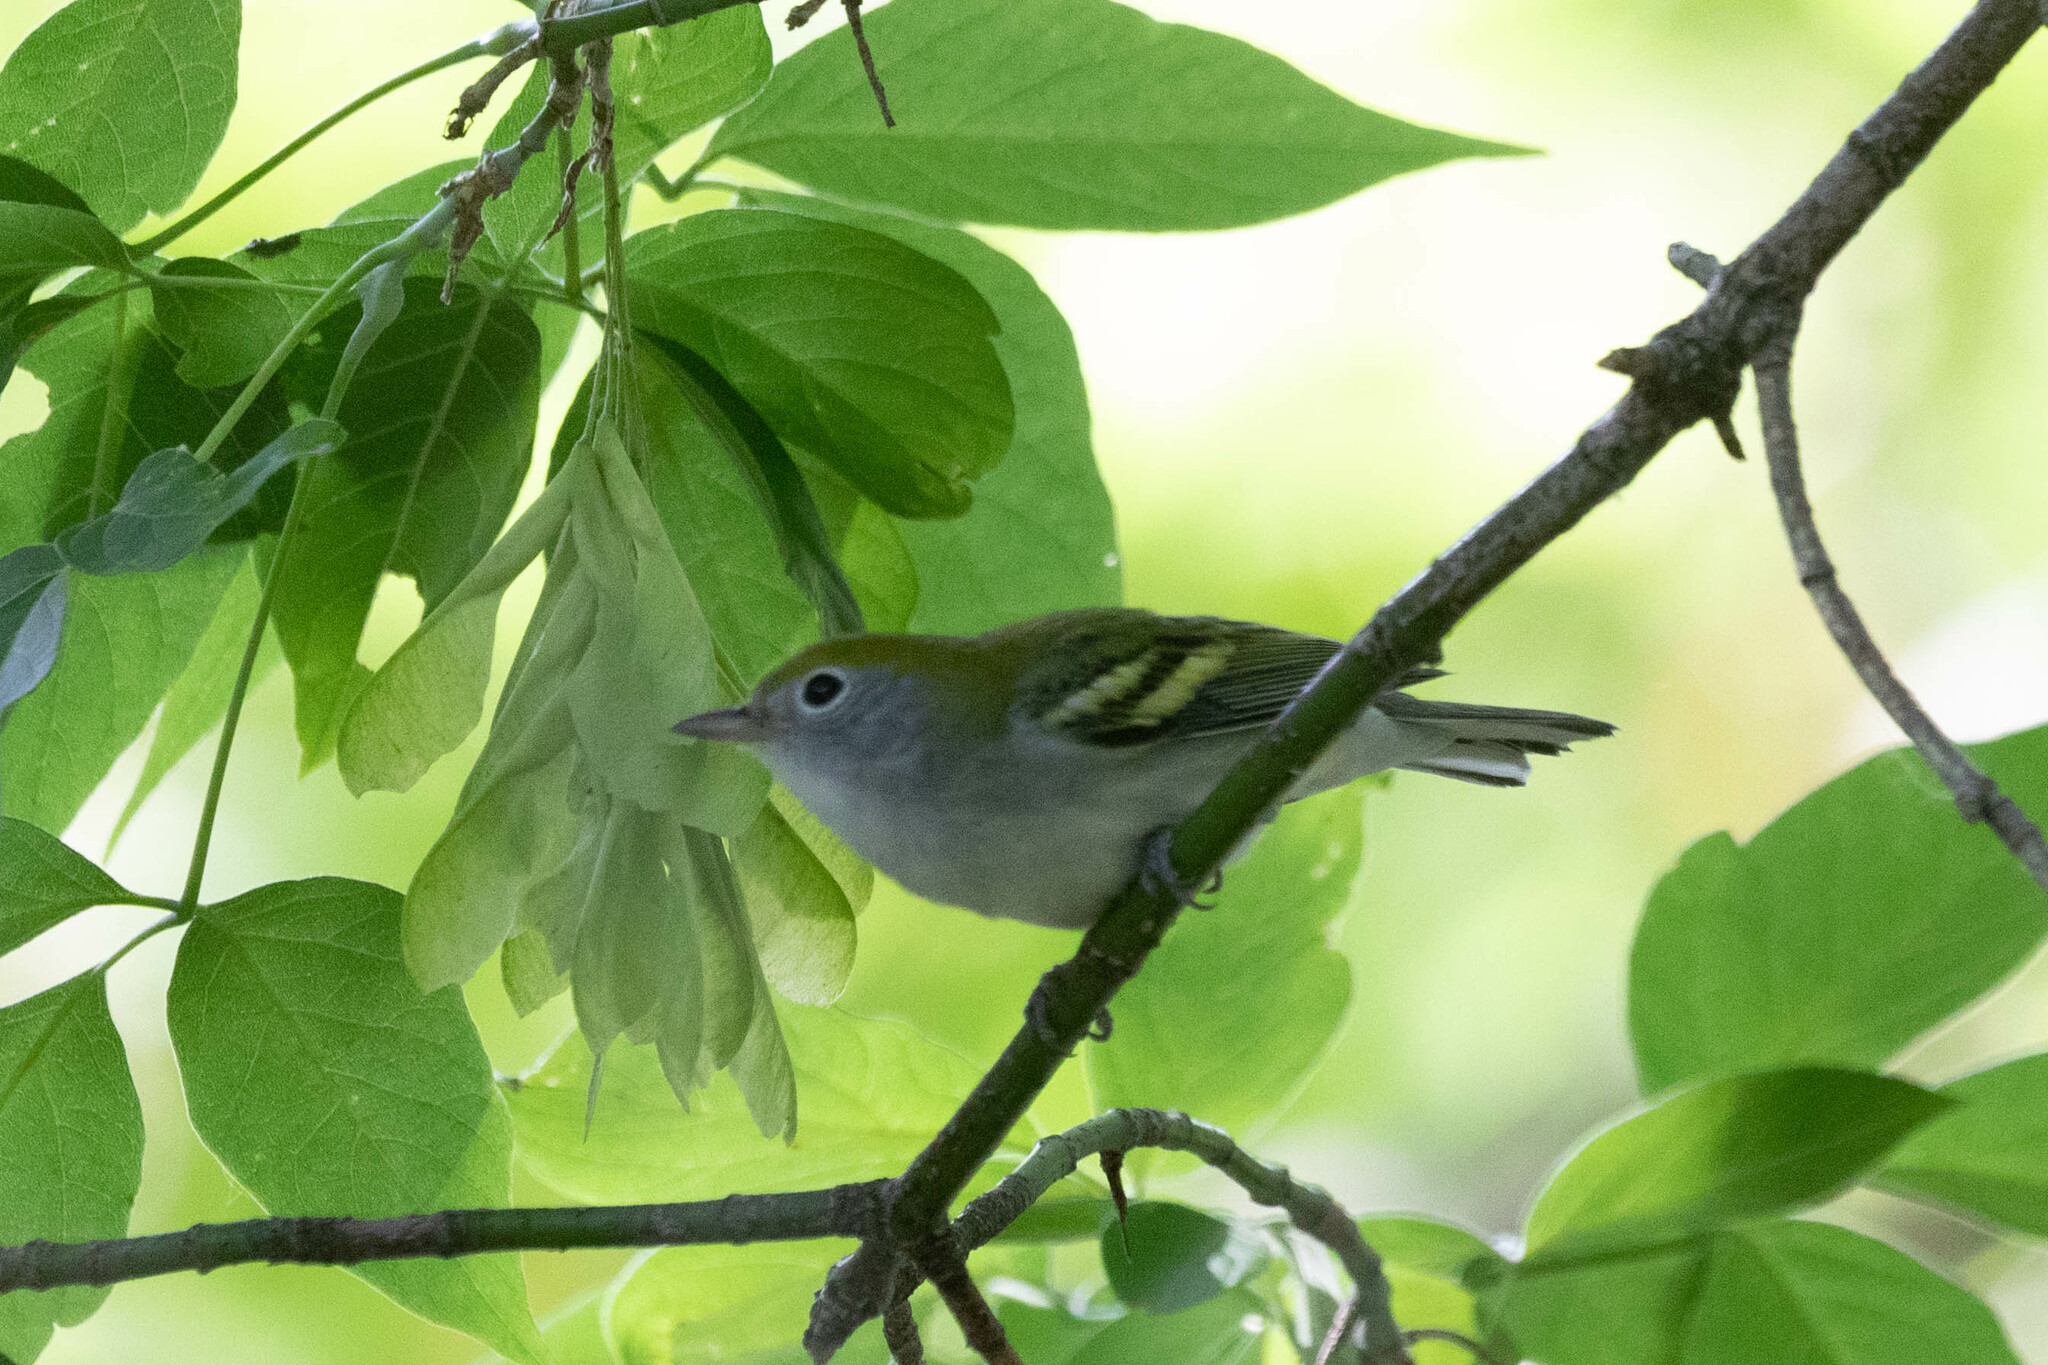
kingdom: Animalia
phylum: Chordata
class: Aves
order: Passeriformes
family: Parulidae
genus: Setophaga
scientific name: Setophaga pensylvanica
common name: Chestnut-sided warbler
